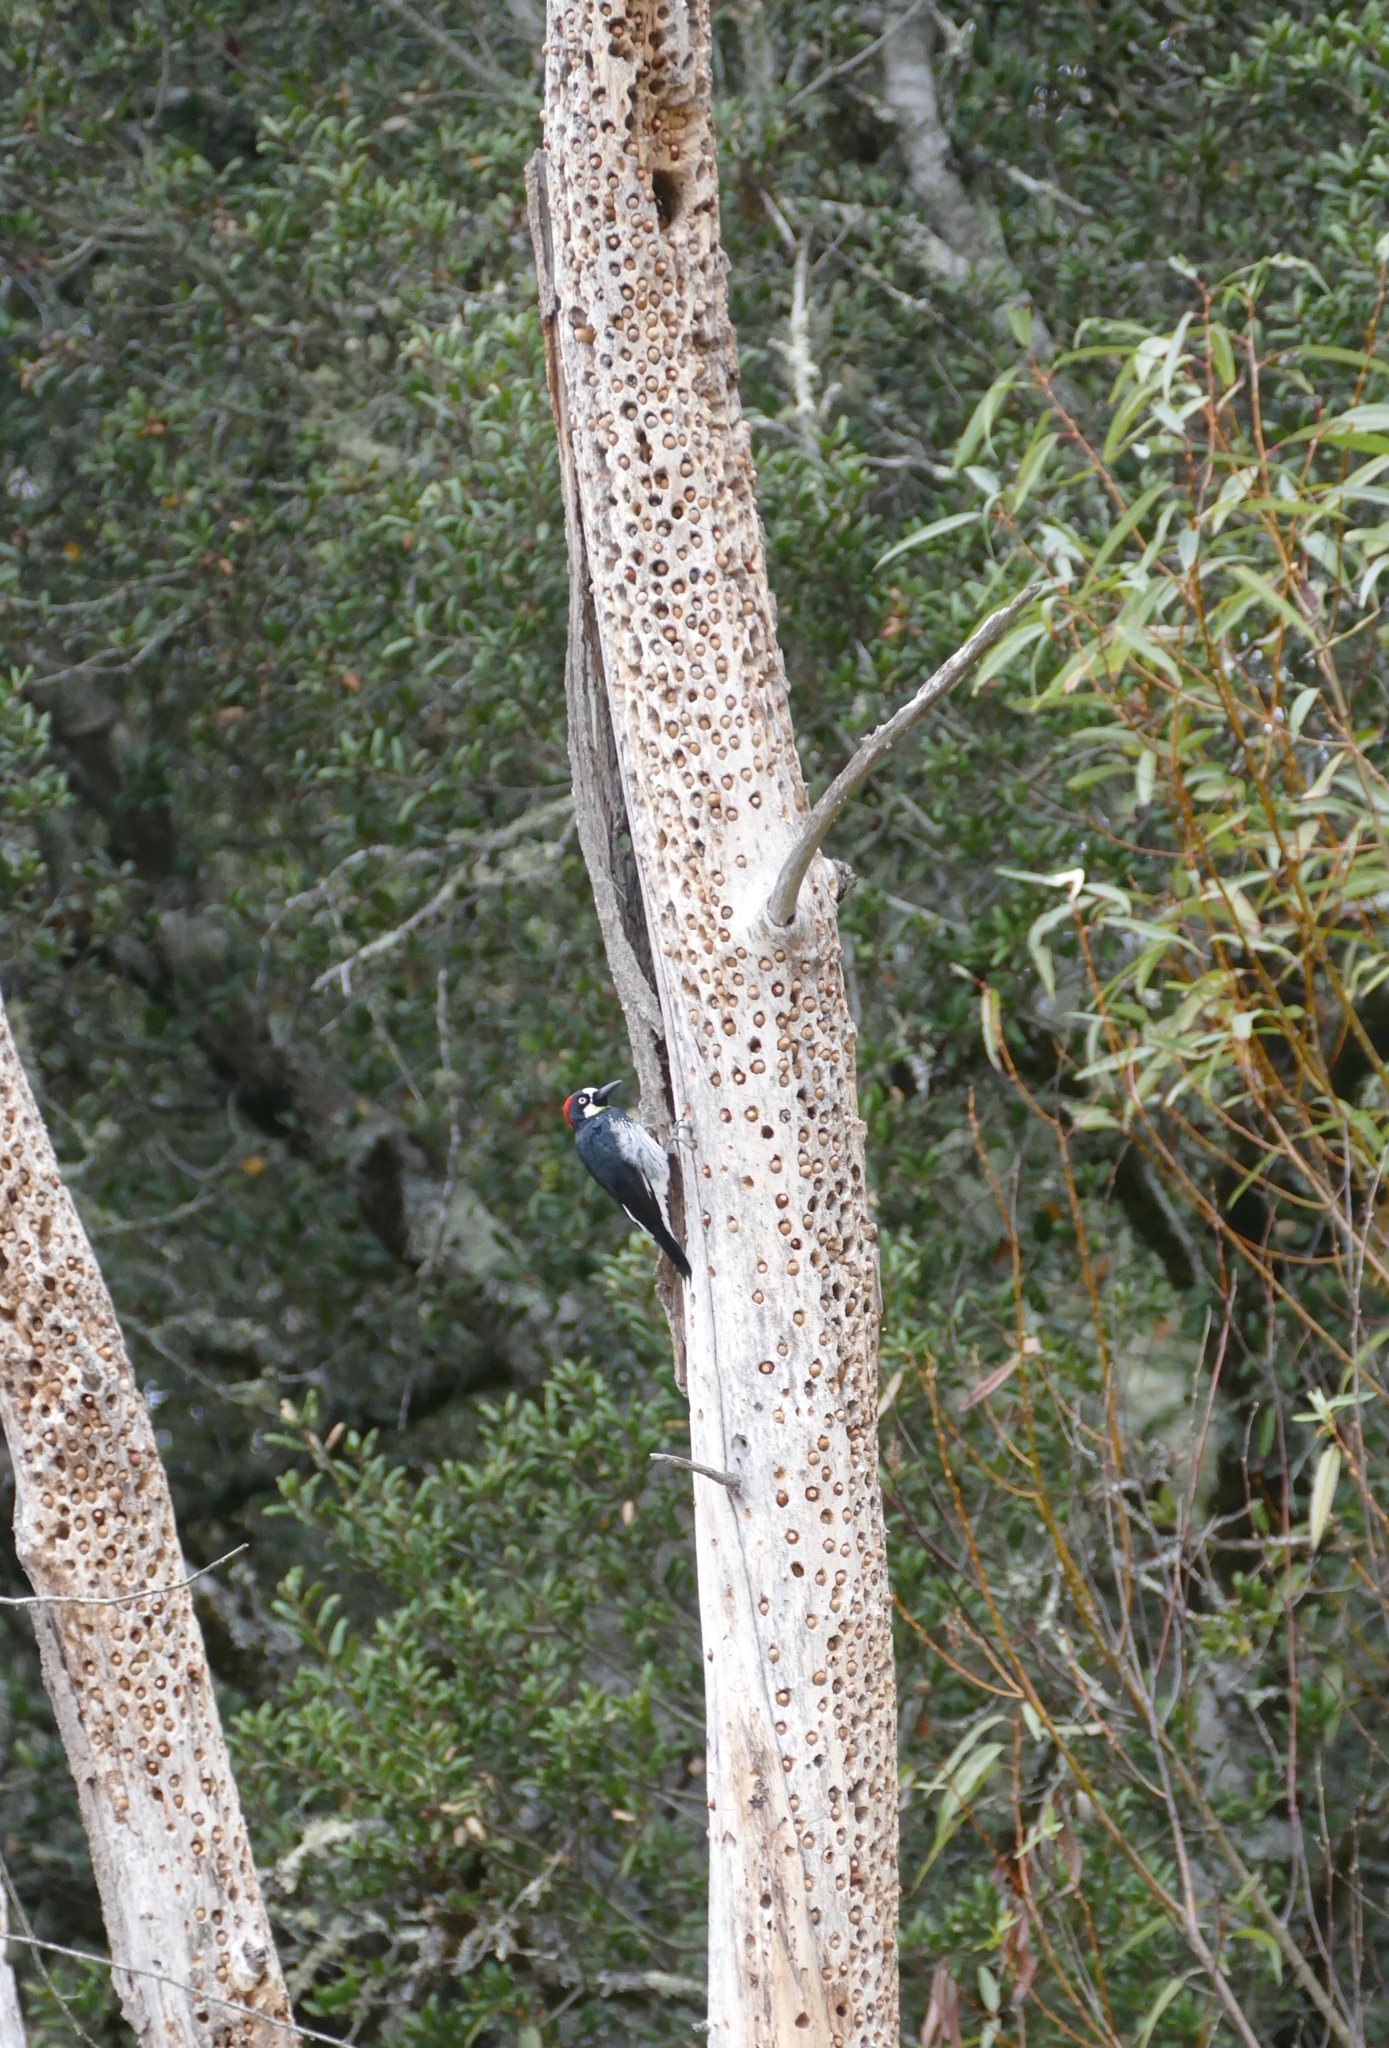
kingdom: Animalia
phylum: Chordata
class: Aves
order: Piciformes
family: Picidae
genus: Melanerpes
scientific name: Melanerpes formicivorus
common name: Acorn woodpecker
